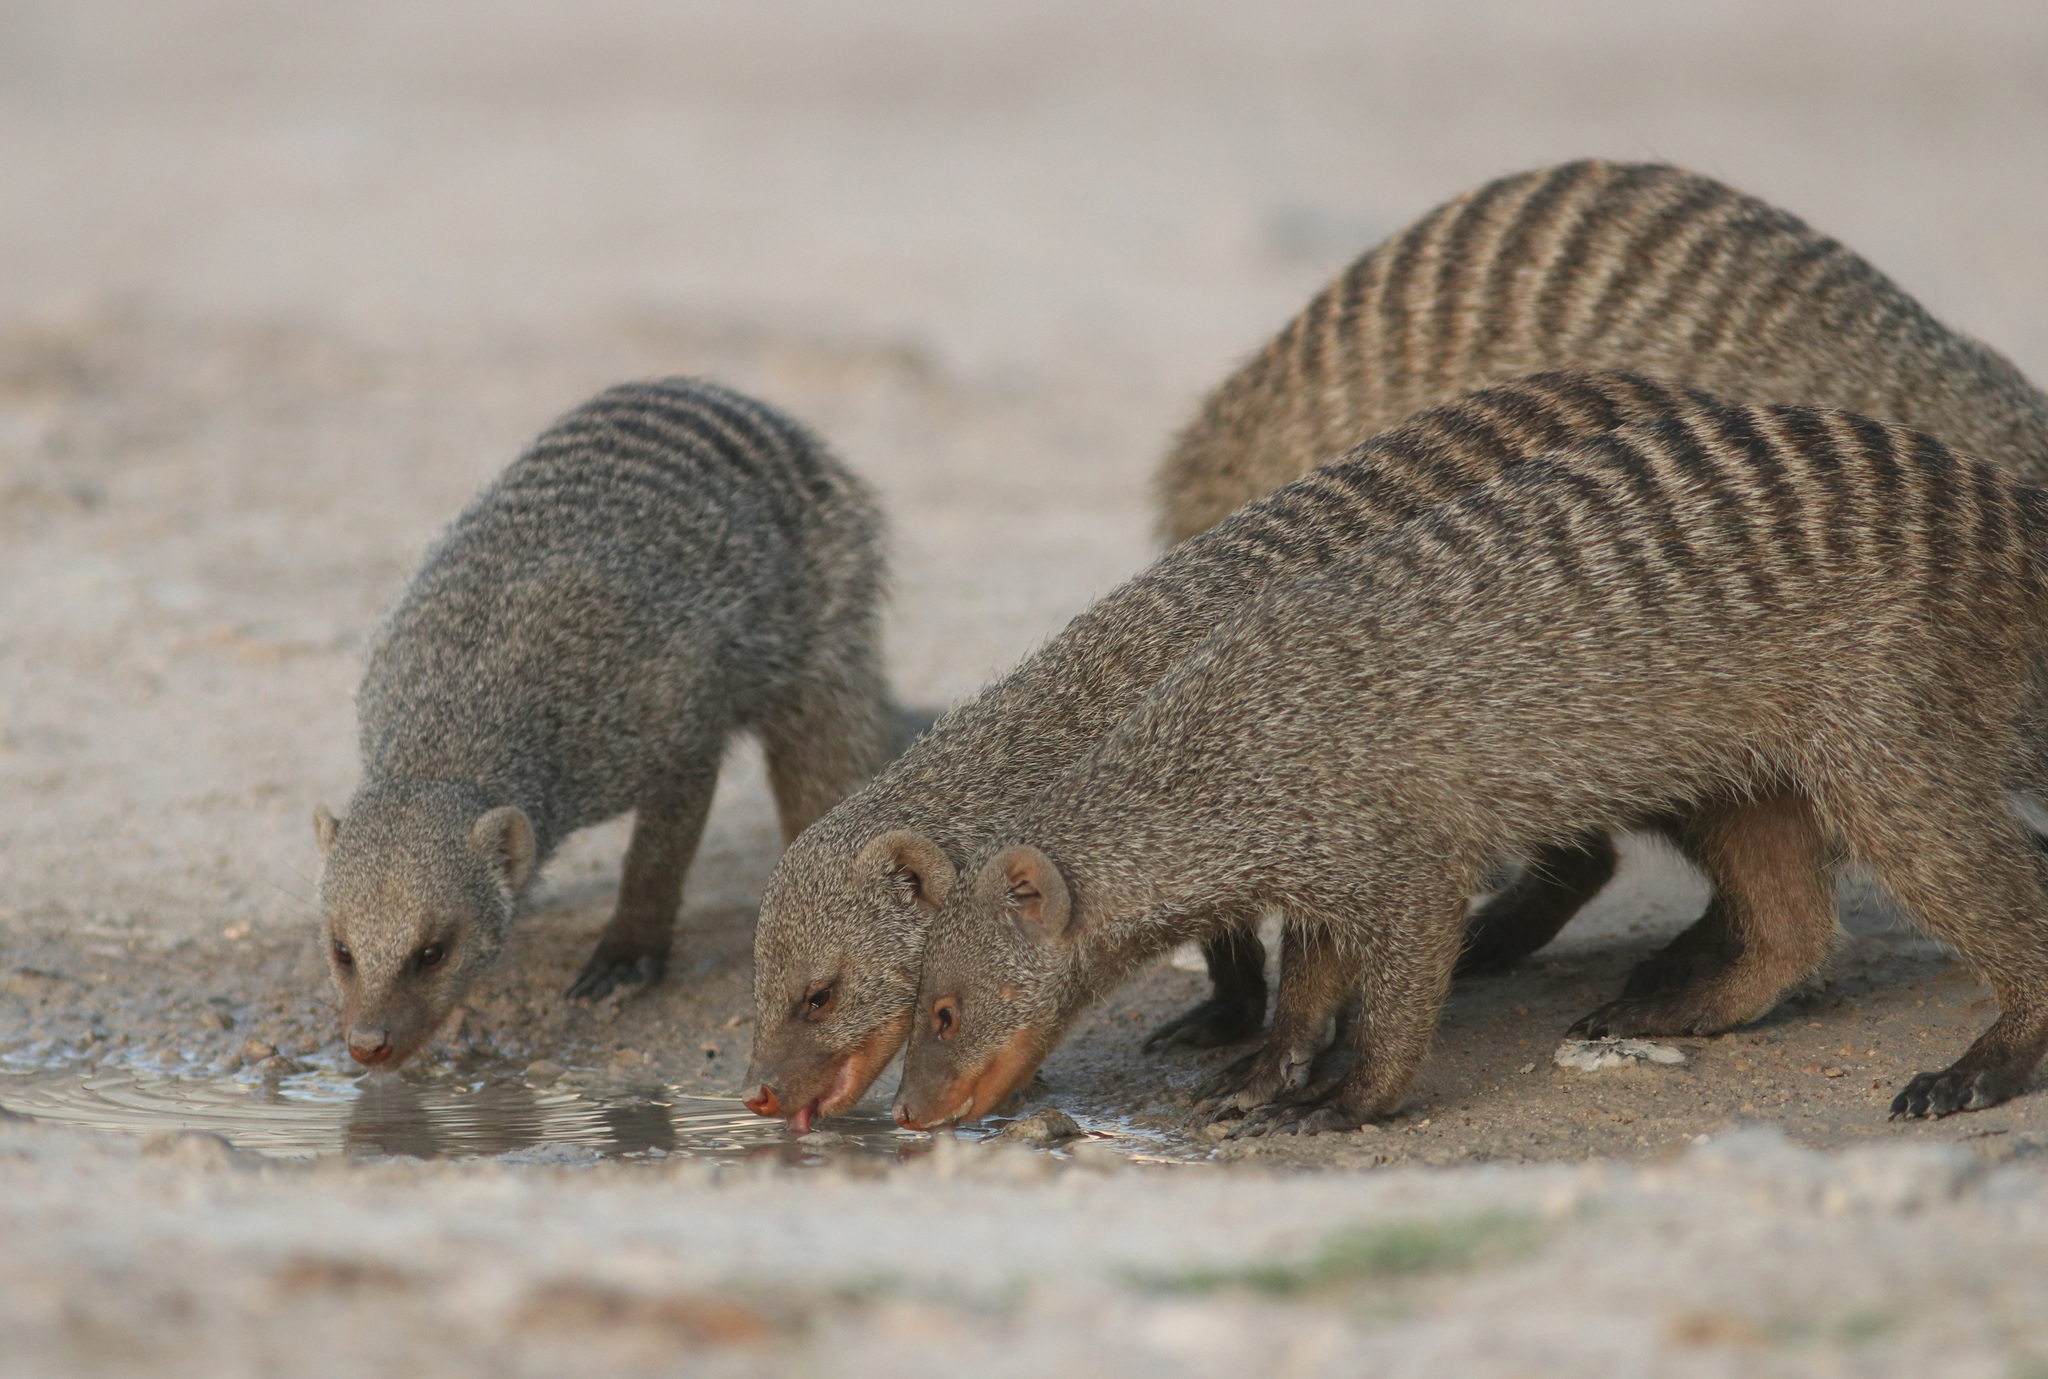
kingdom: Animalia
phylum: Chordata
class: Mammalia
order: Carnivora
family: Herpestidae
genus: Mungos
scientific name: Mungos mungo
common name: Banded mongoose
